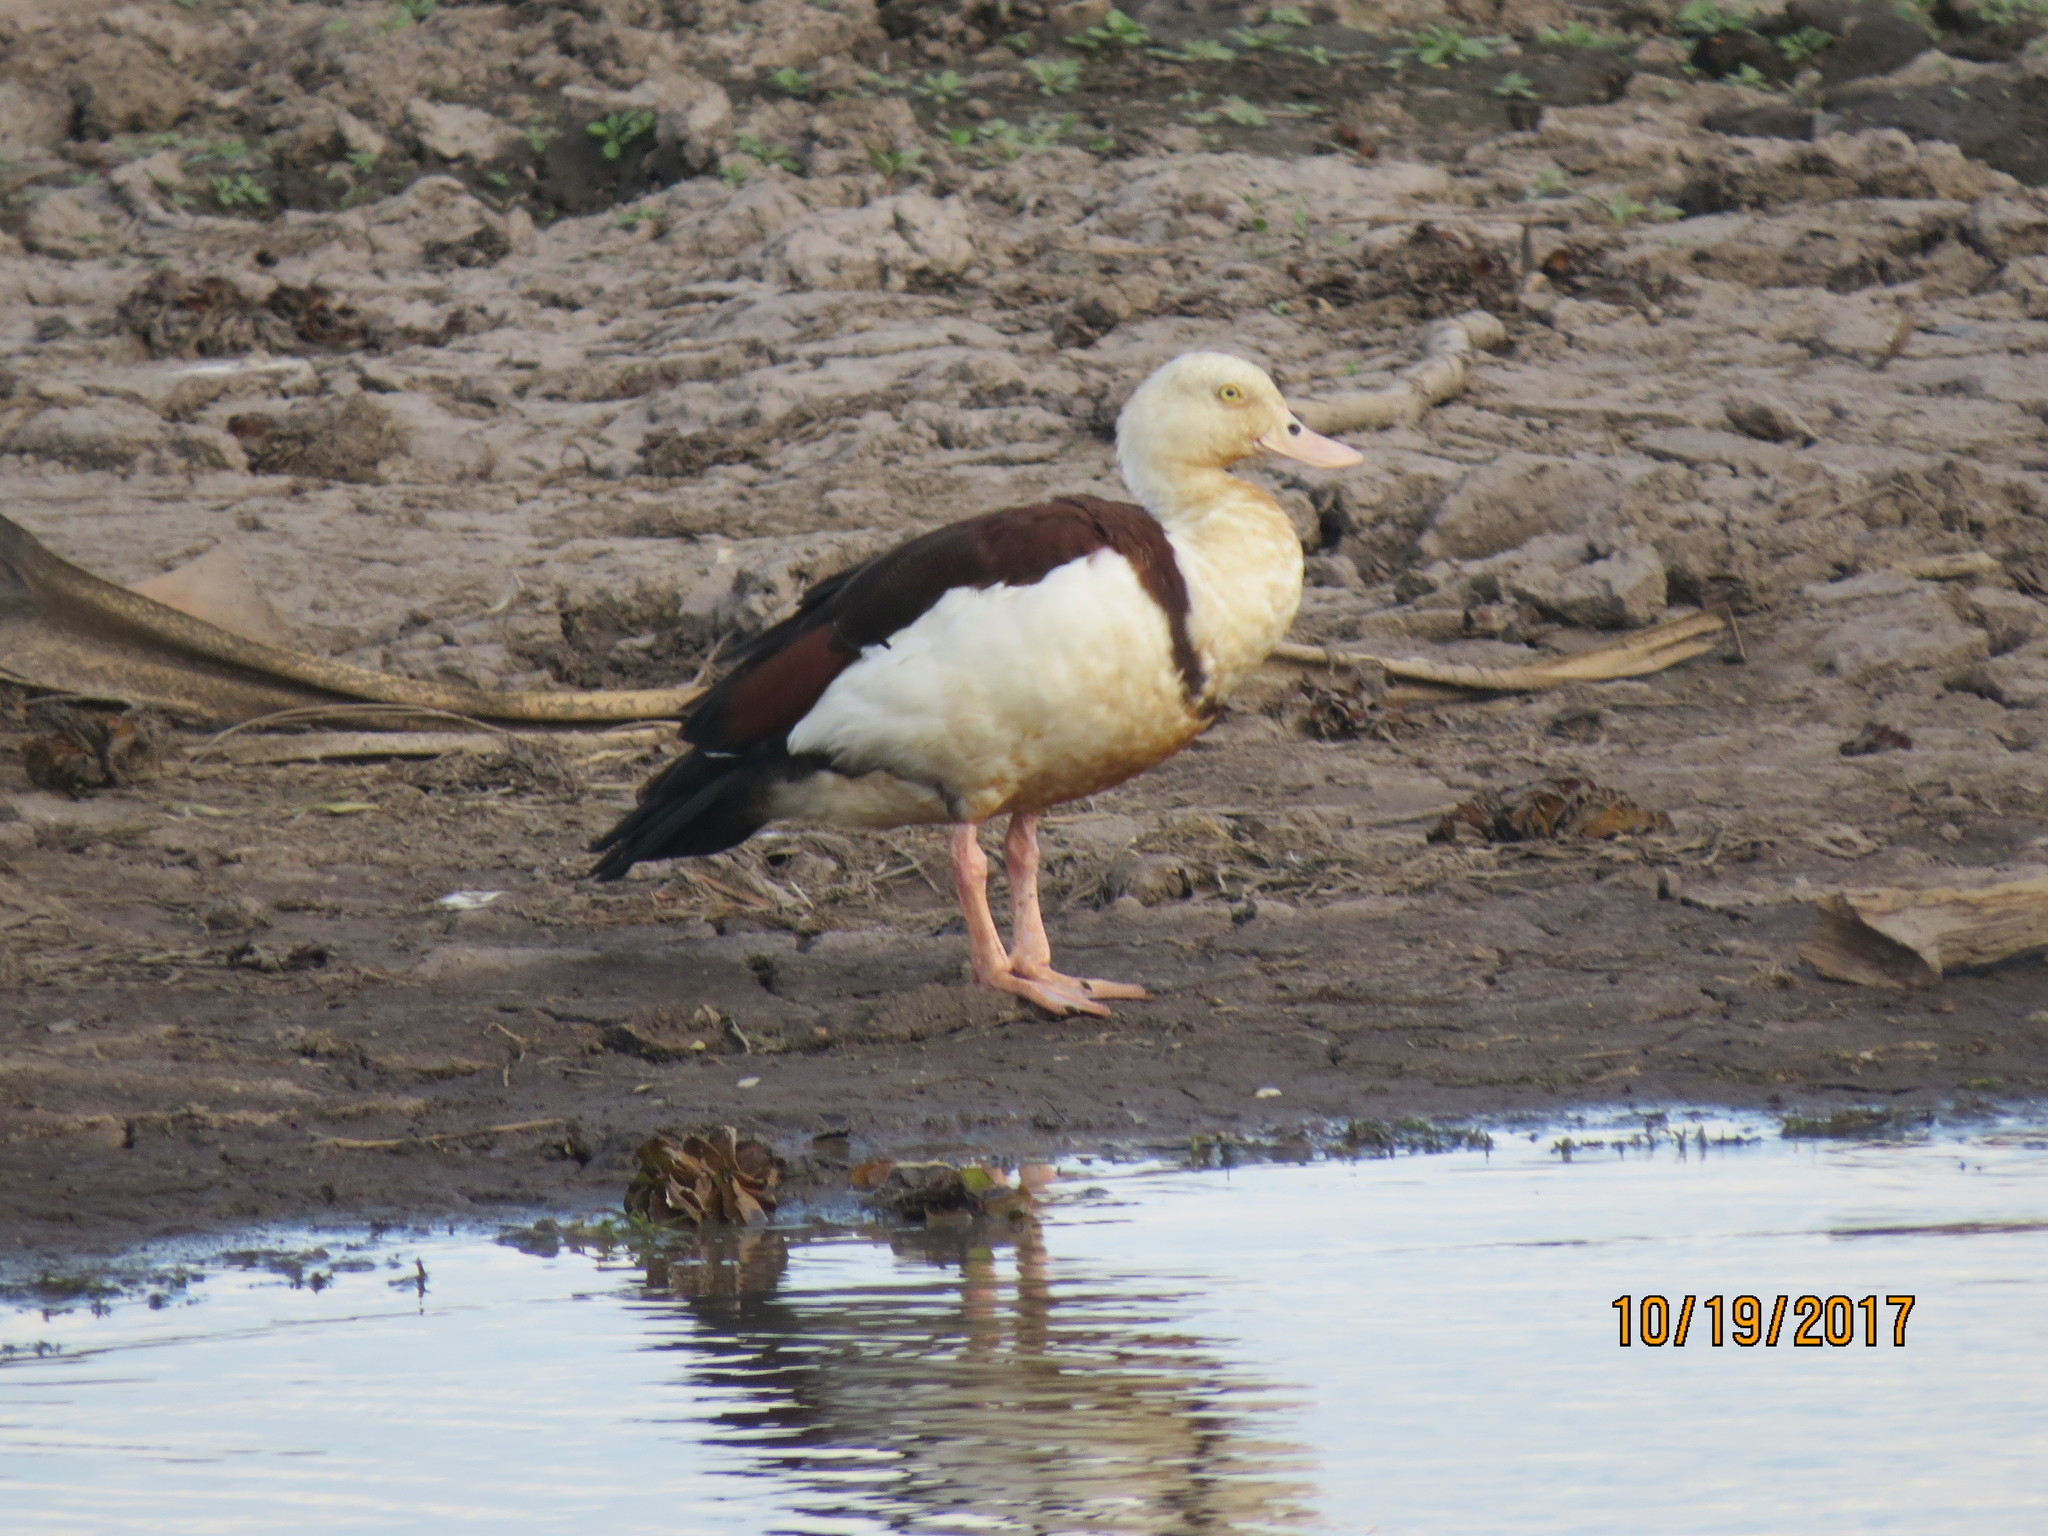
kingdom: Animalia
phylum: Chordata
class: Aves
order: Anseriformes
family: Anatidae
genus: Radjah
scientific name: Radjah radjah
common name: Radjah shelduck
